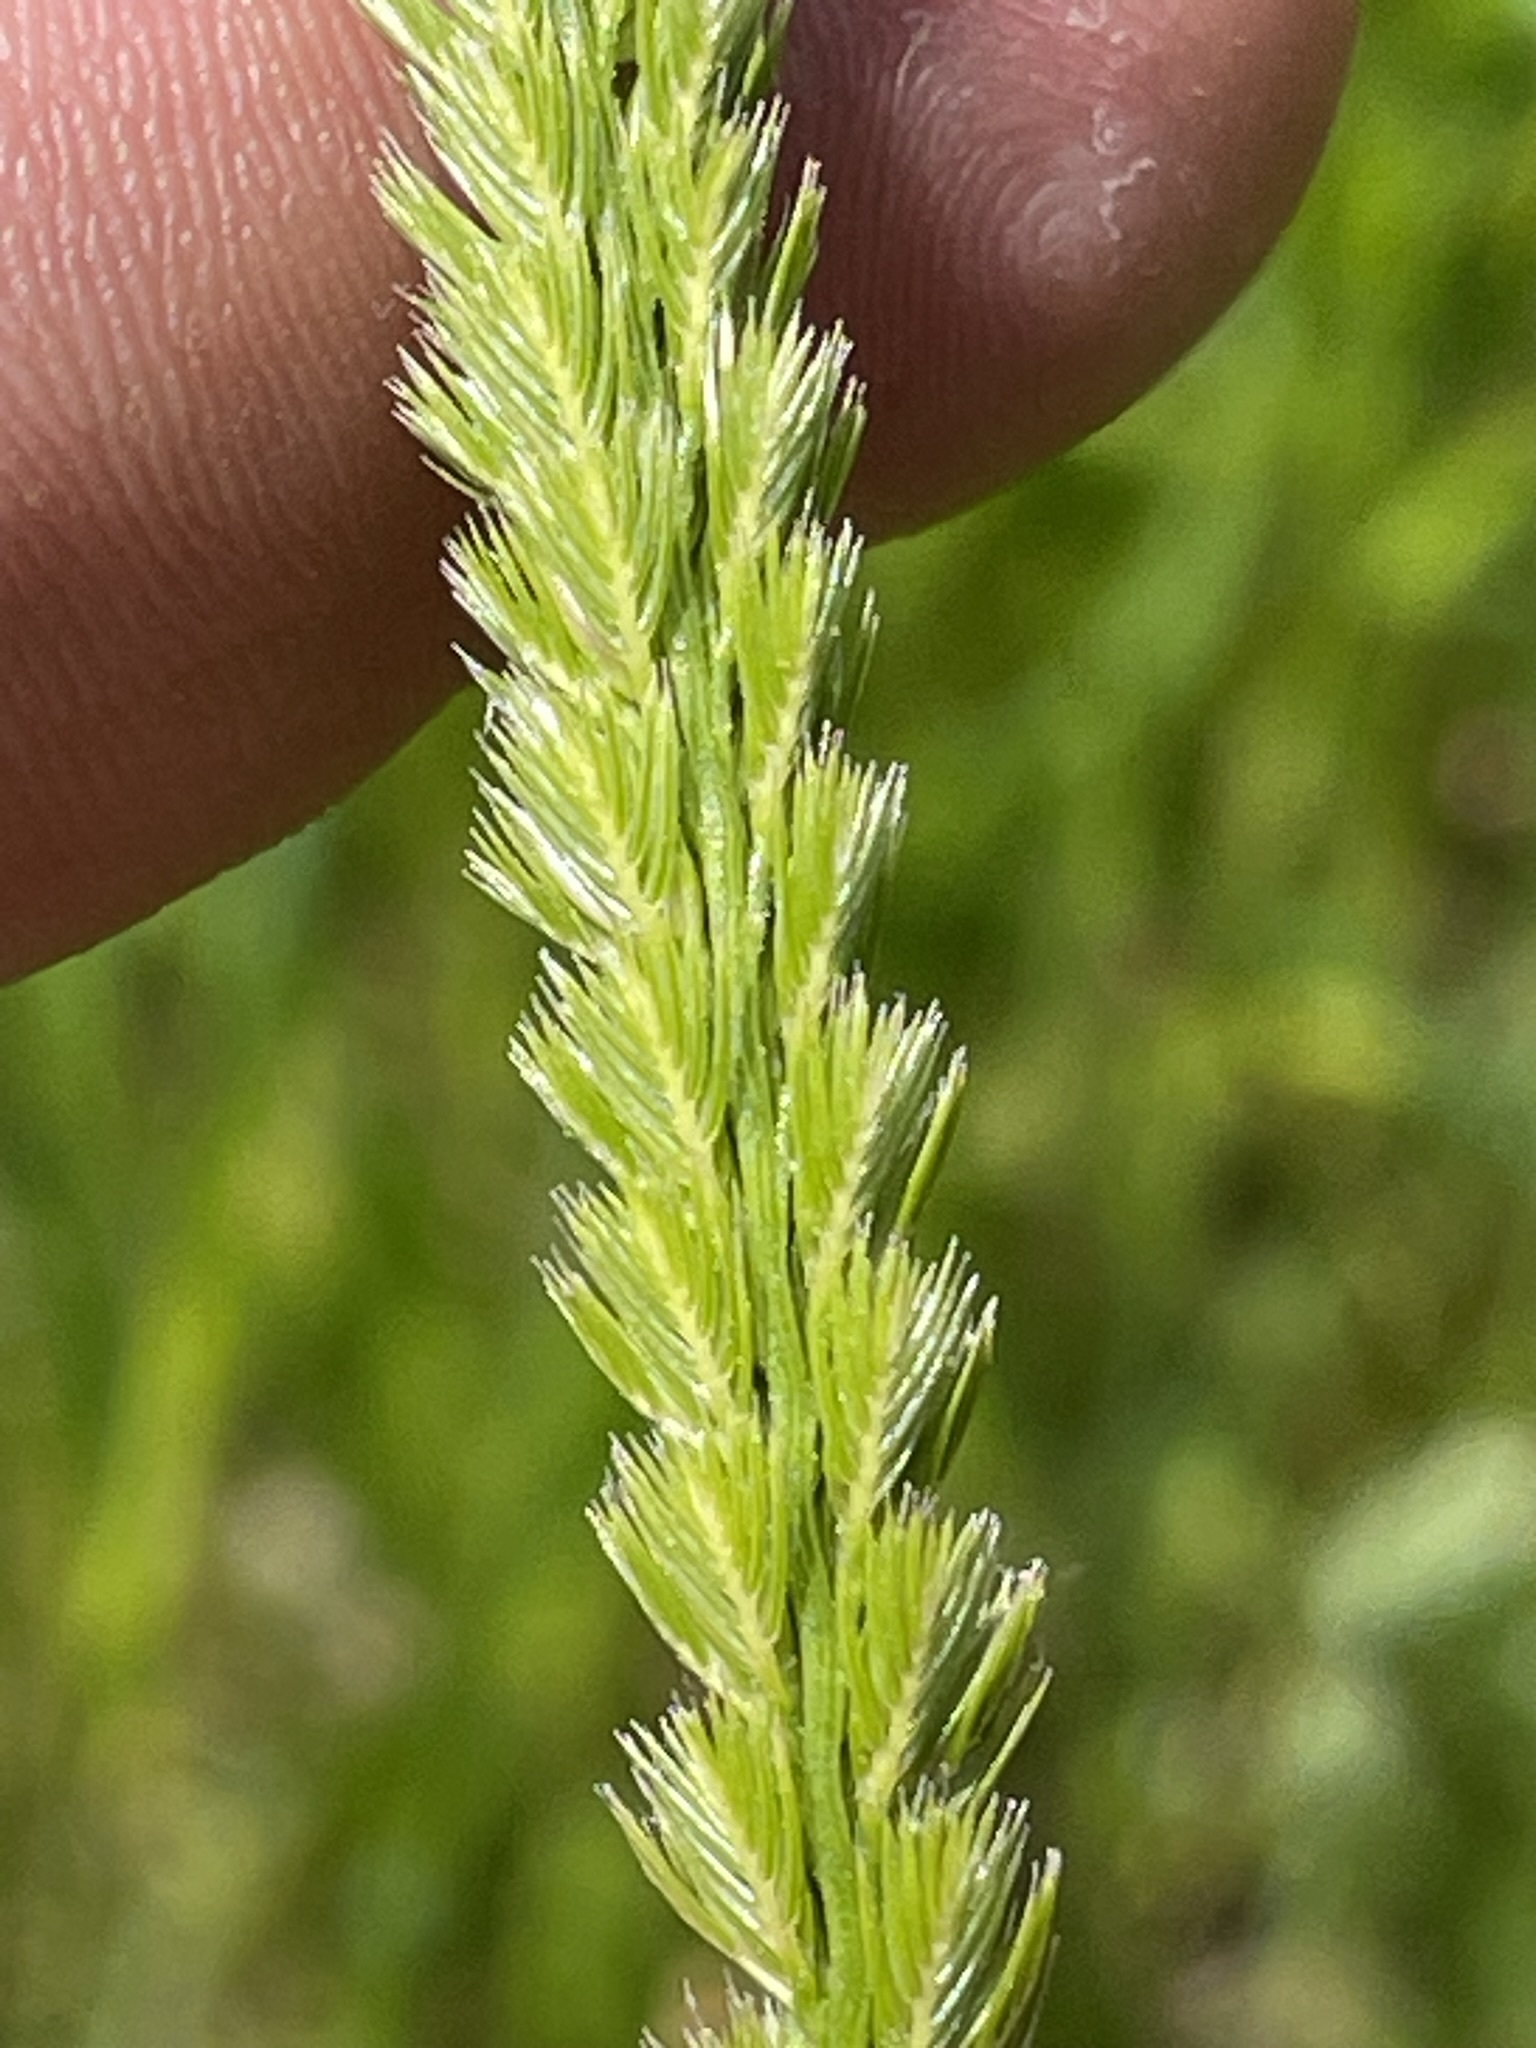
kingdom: Plantae
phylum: Tracheophyta
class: Liliopsida
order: Poales
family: Poaceae
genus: Cynosurus
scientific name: Cynosurus cristatus
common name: Crested dog's-tail
